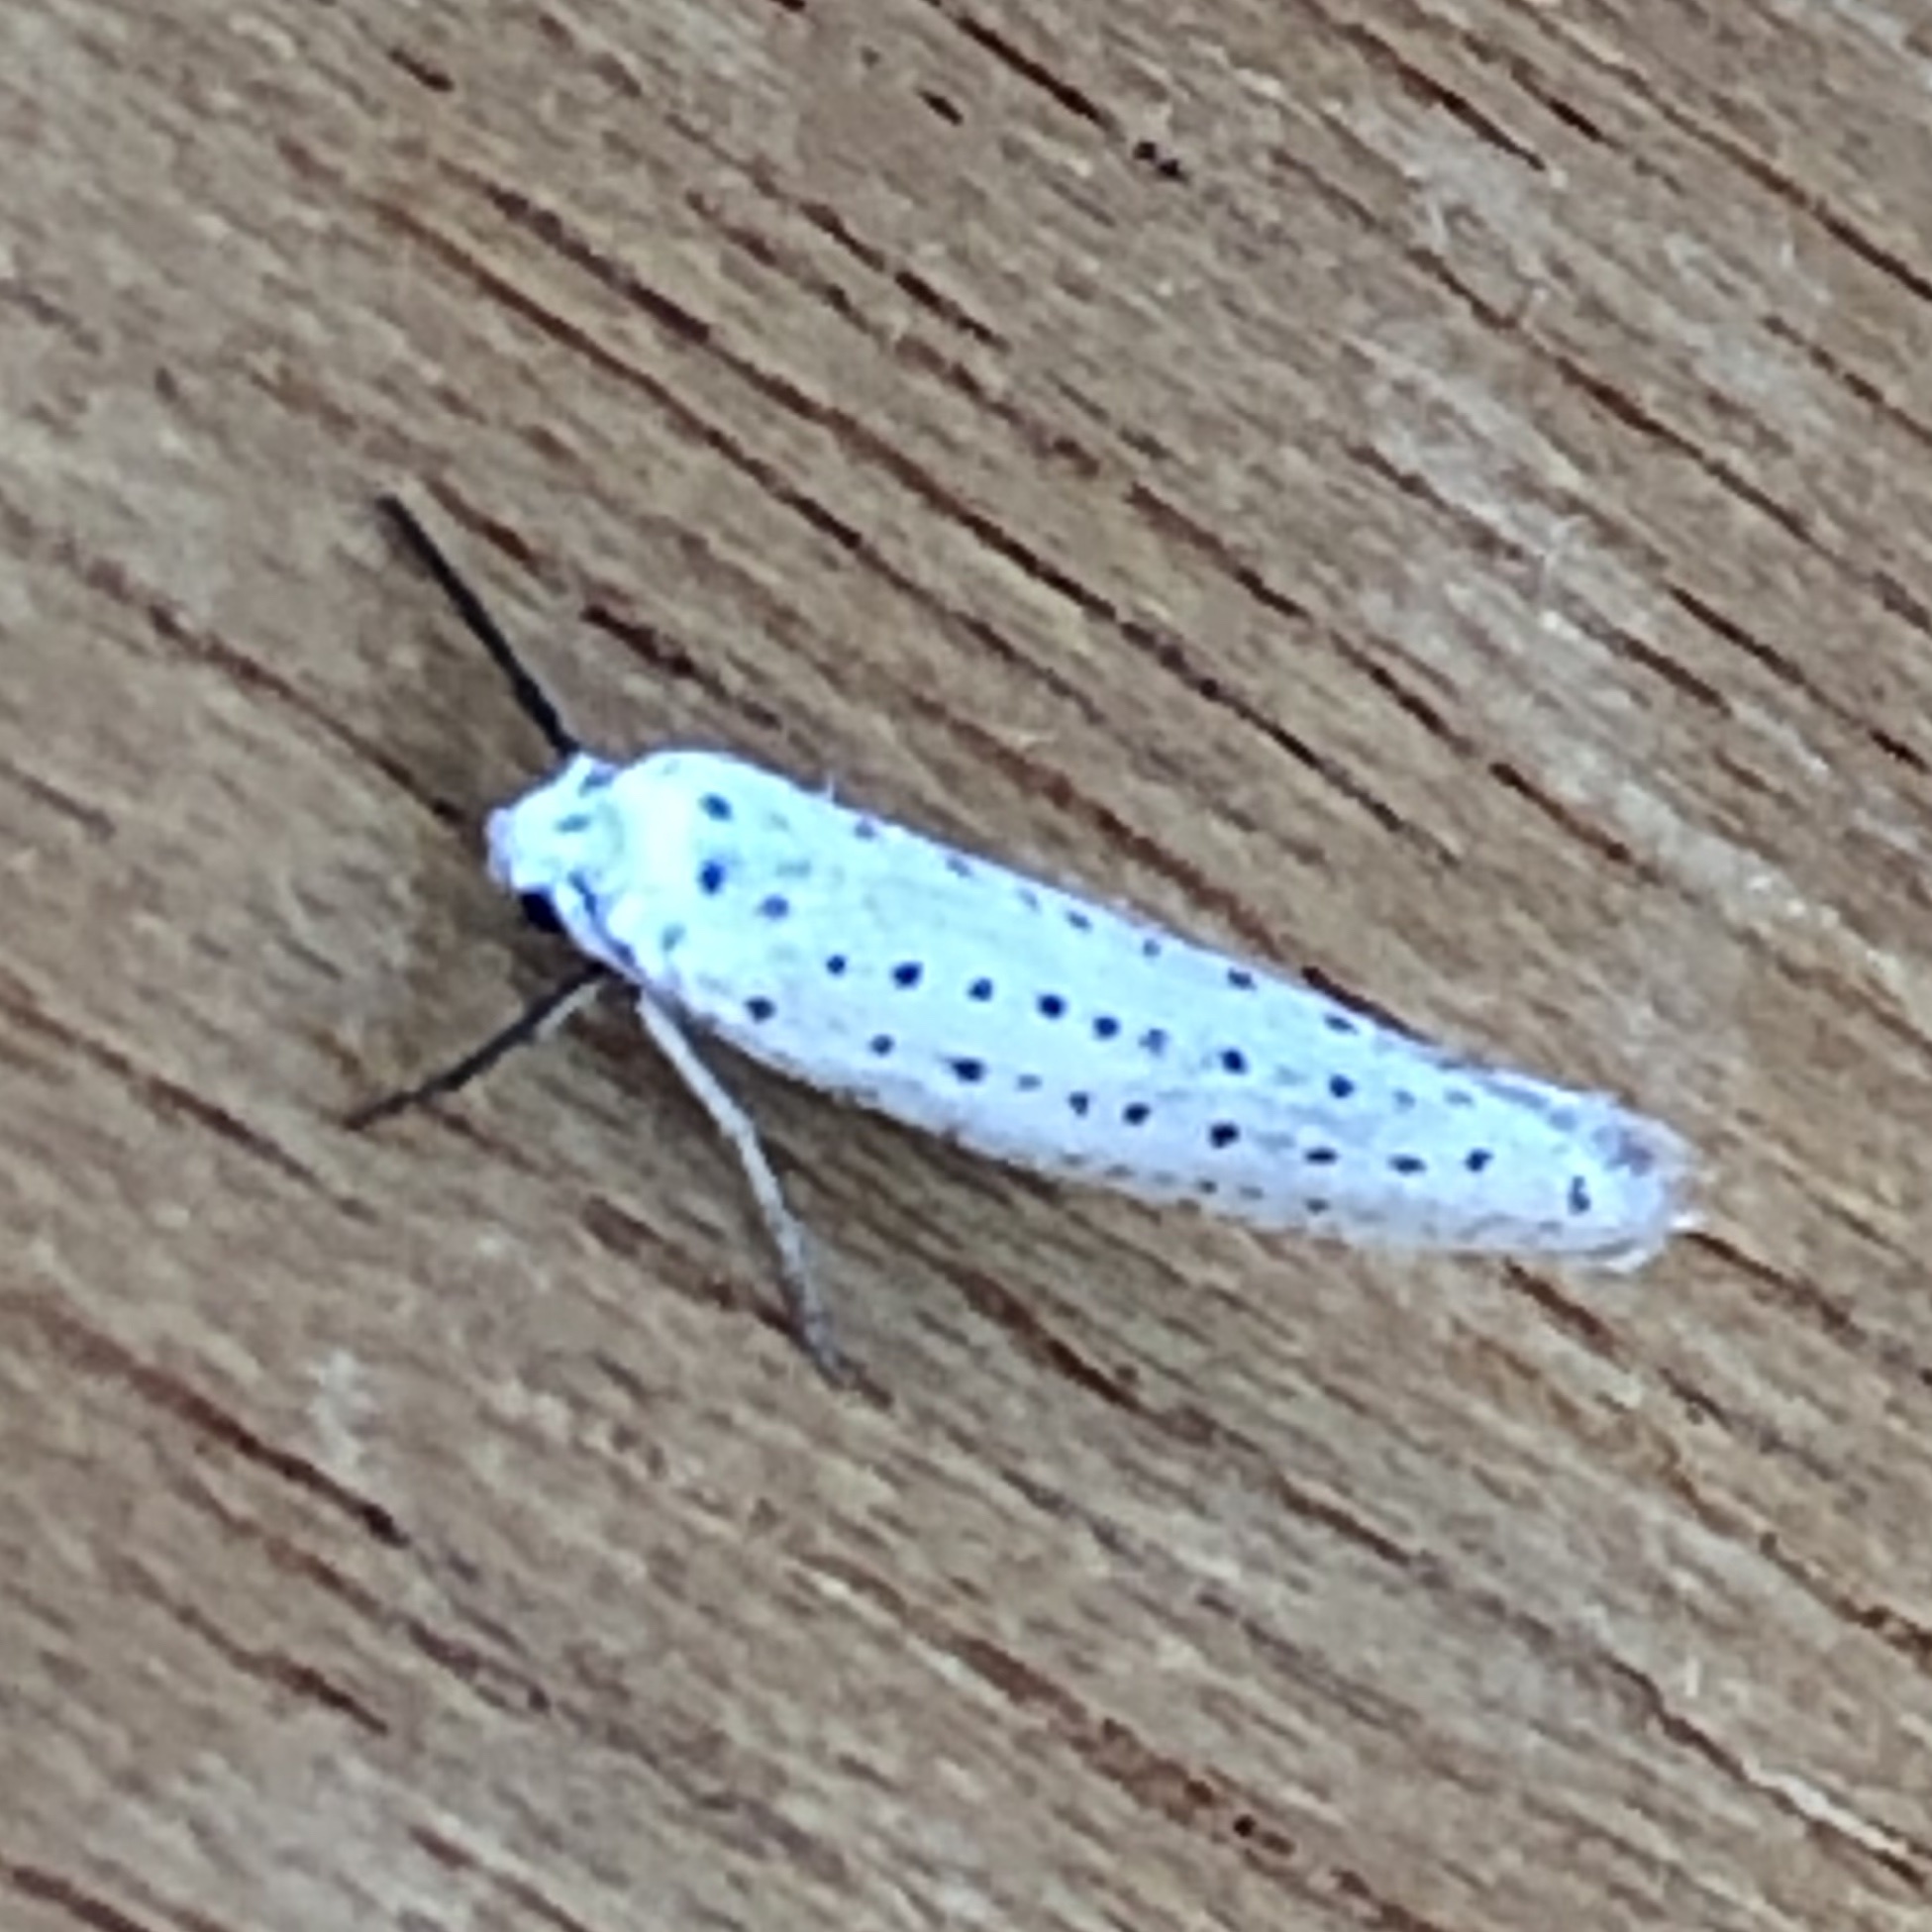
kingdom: Animalia
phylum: Arthropoda
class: Insecta
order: Lepidoptera
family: Yponomeutidae
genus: Yponomeuta
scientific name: Yponomeuta evonymella
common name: Bird-cherry ermine
